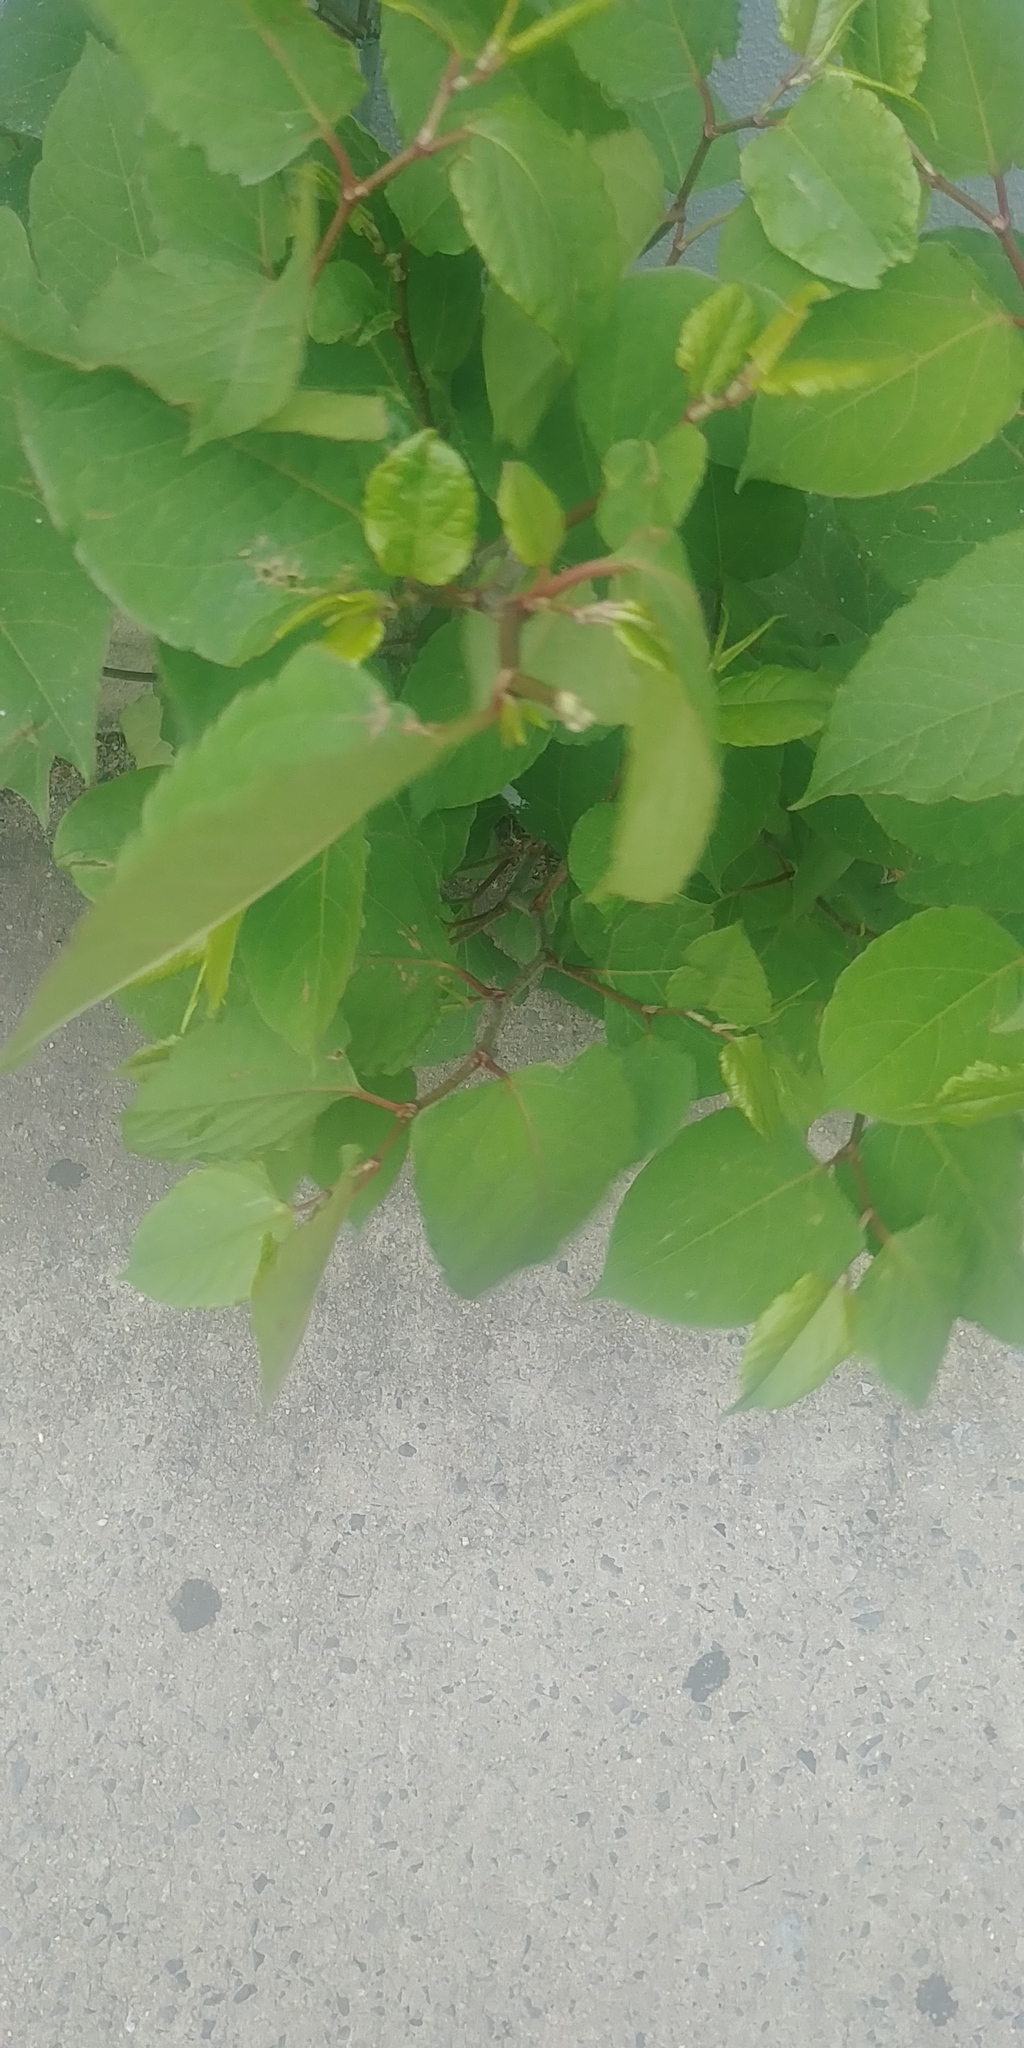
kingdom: Plantae
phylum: Tracheophyta
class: Magnoliopsida
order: Caryophyllales
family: Polygonaceae
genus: Reynoutria
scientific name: Reynoutria japonica
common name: Japanese knotweed
